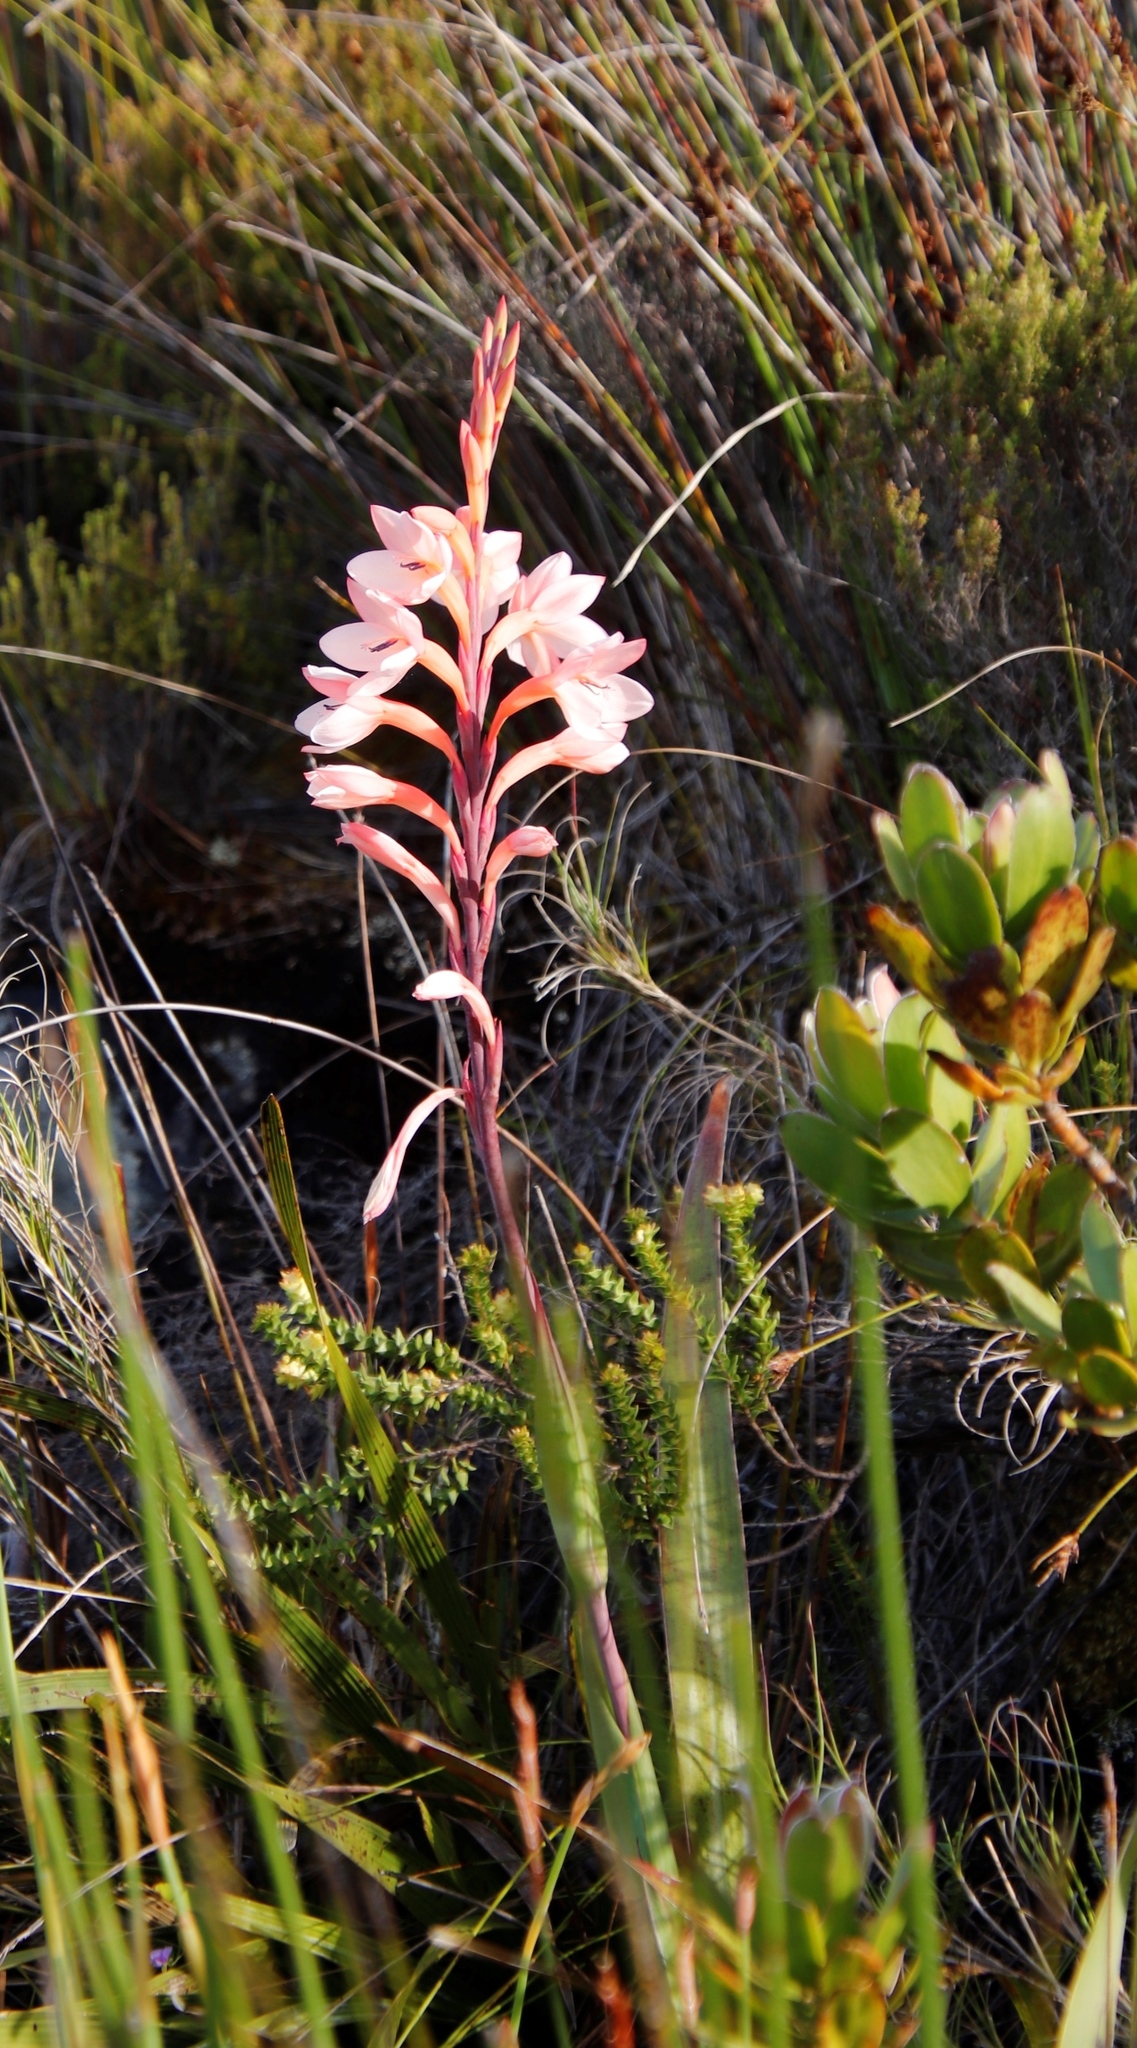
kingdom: Plantae
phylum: Tracheophyta
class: Liliopsida
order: Asparagales
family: Iridaceae
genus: Watsonia
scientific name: Watsonia tabularis
